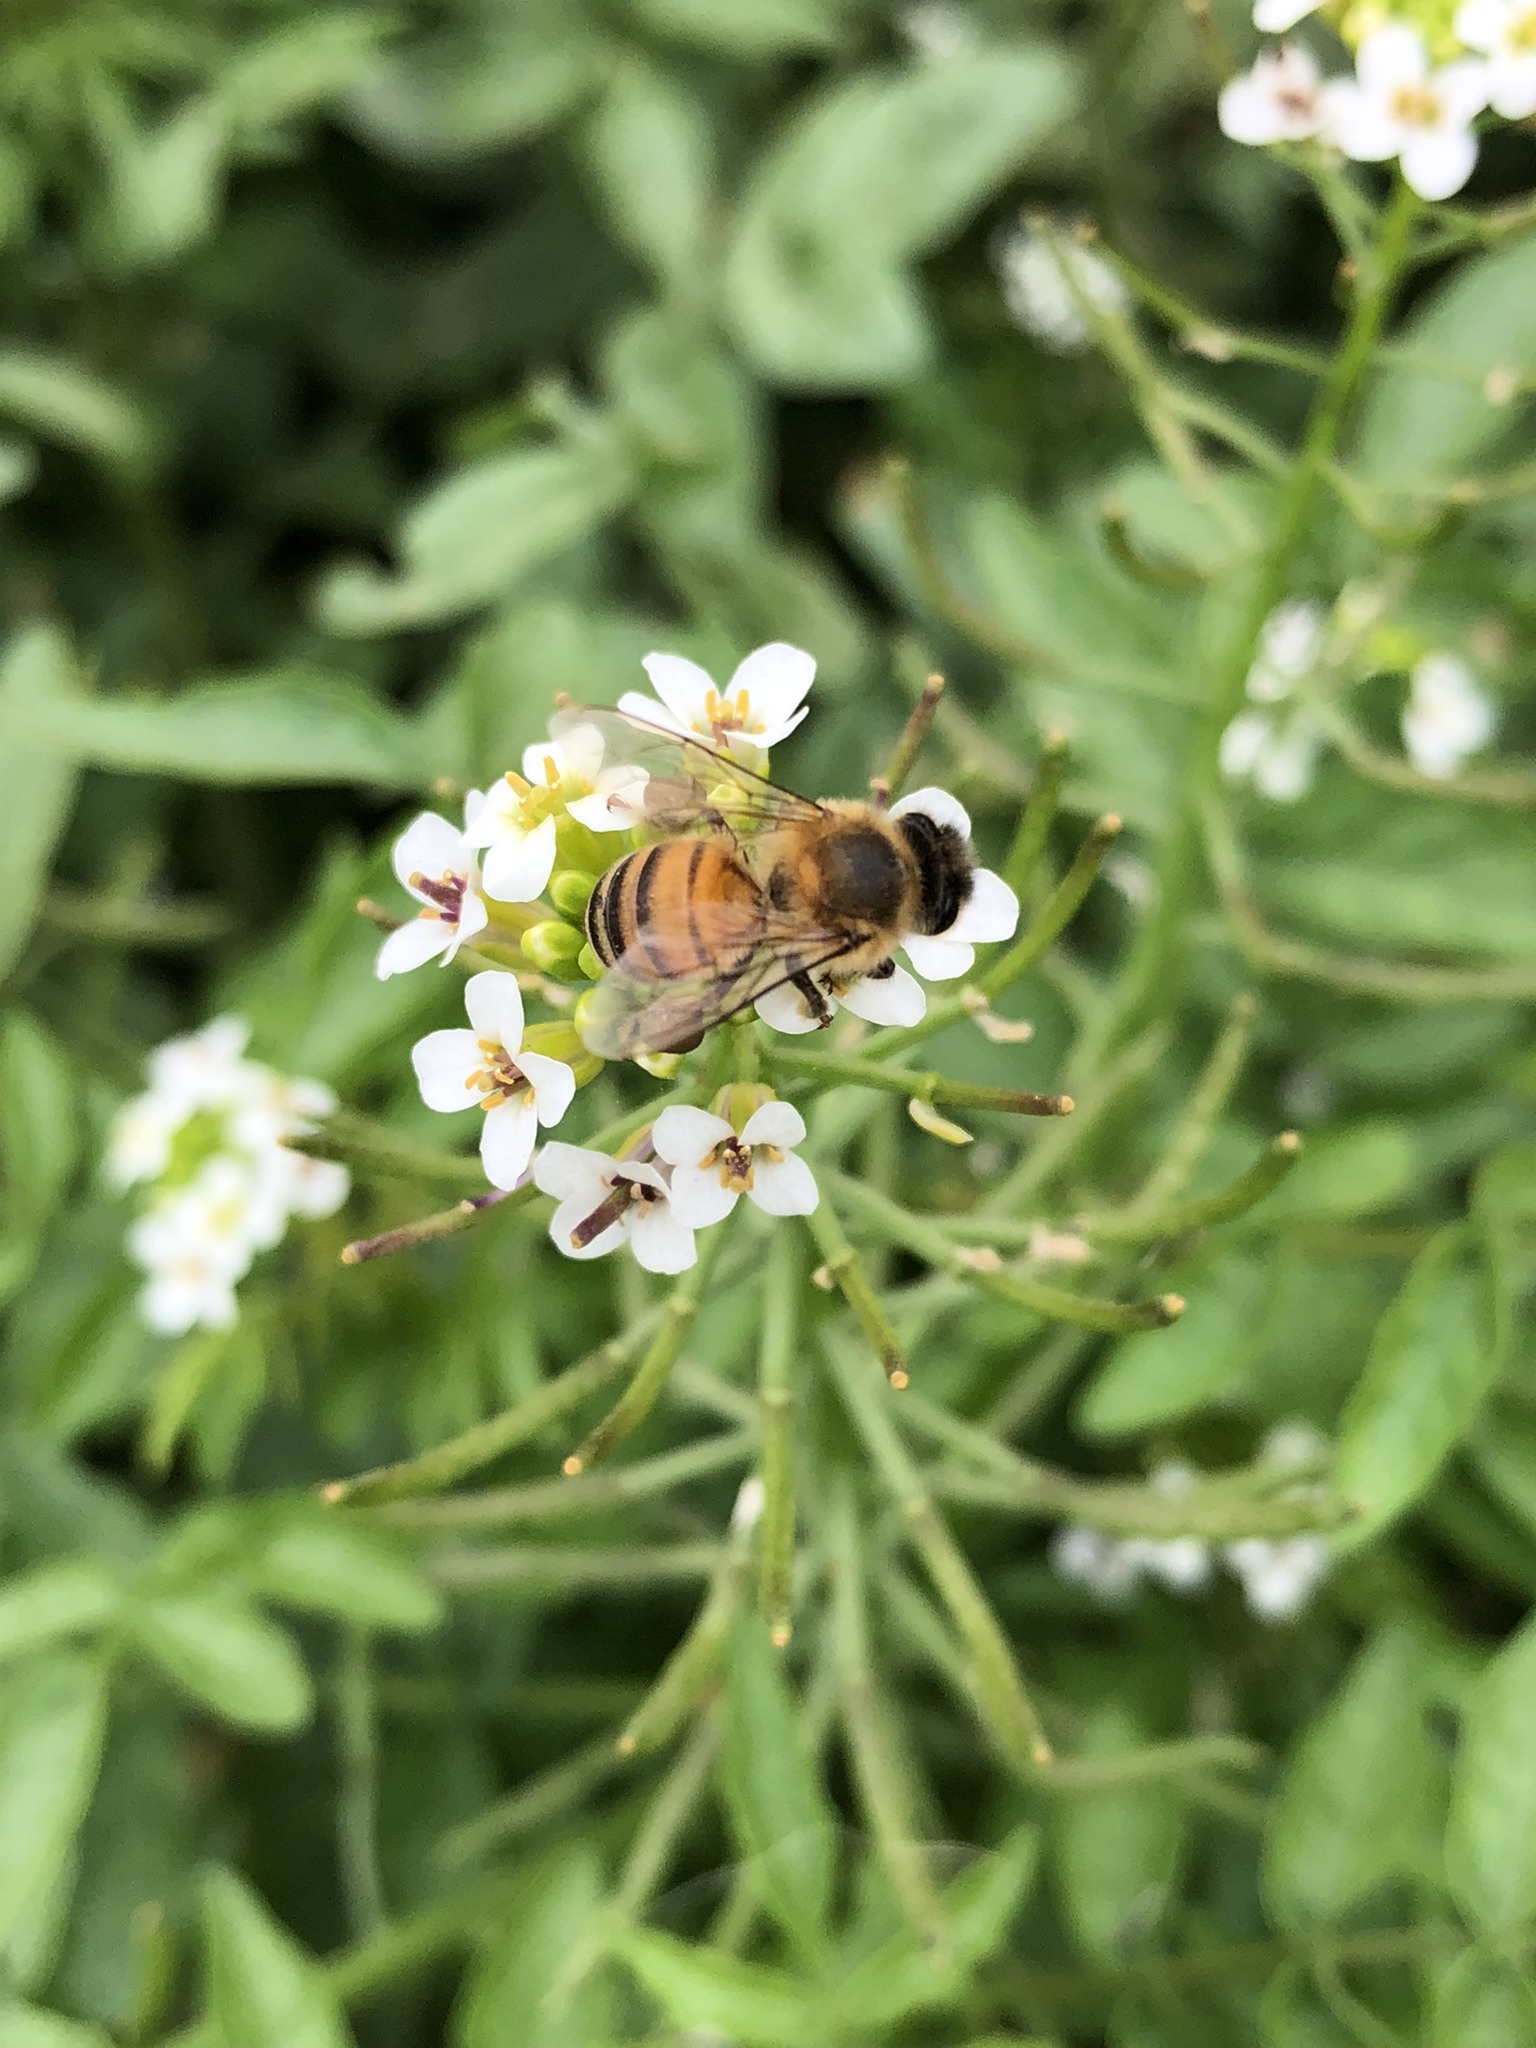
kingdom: Animalia
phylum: Arthropoda
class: Insecta
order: Hymenoptera
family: Apidae
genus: Apis
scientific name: Apis mellifera
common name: Honey bee
